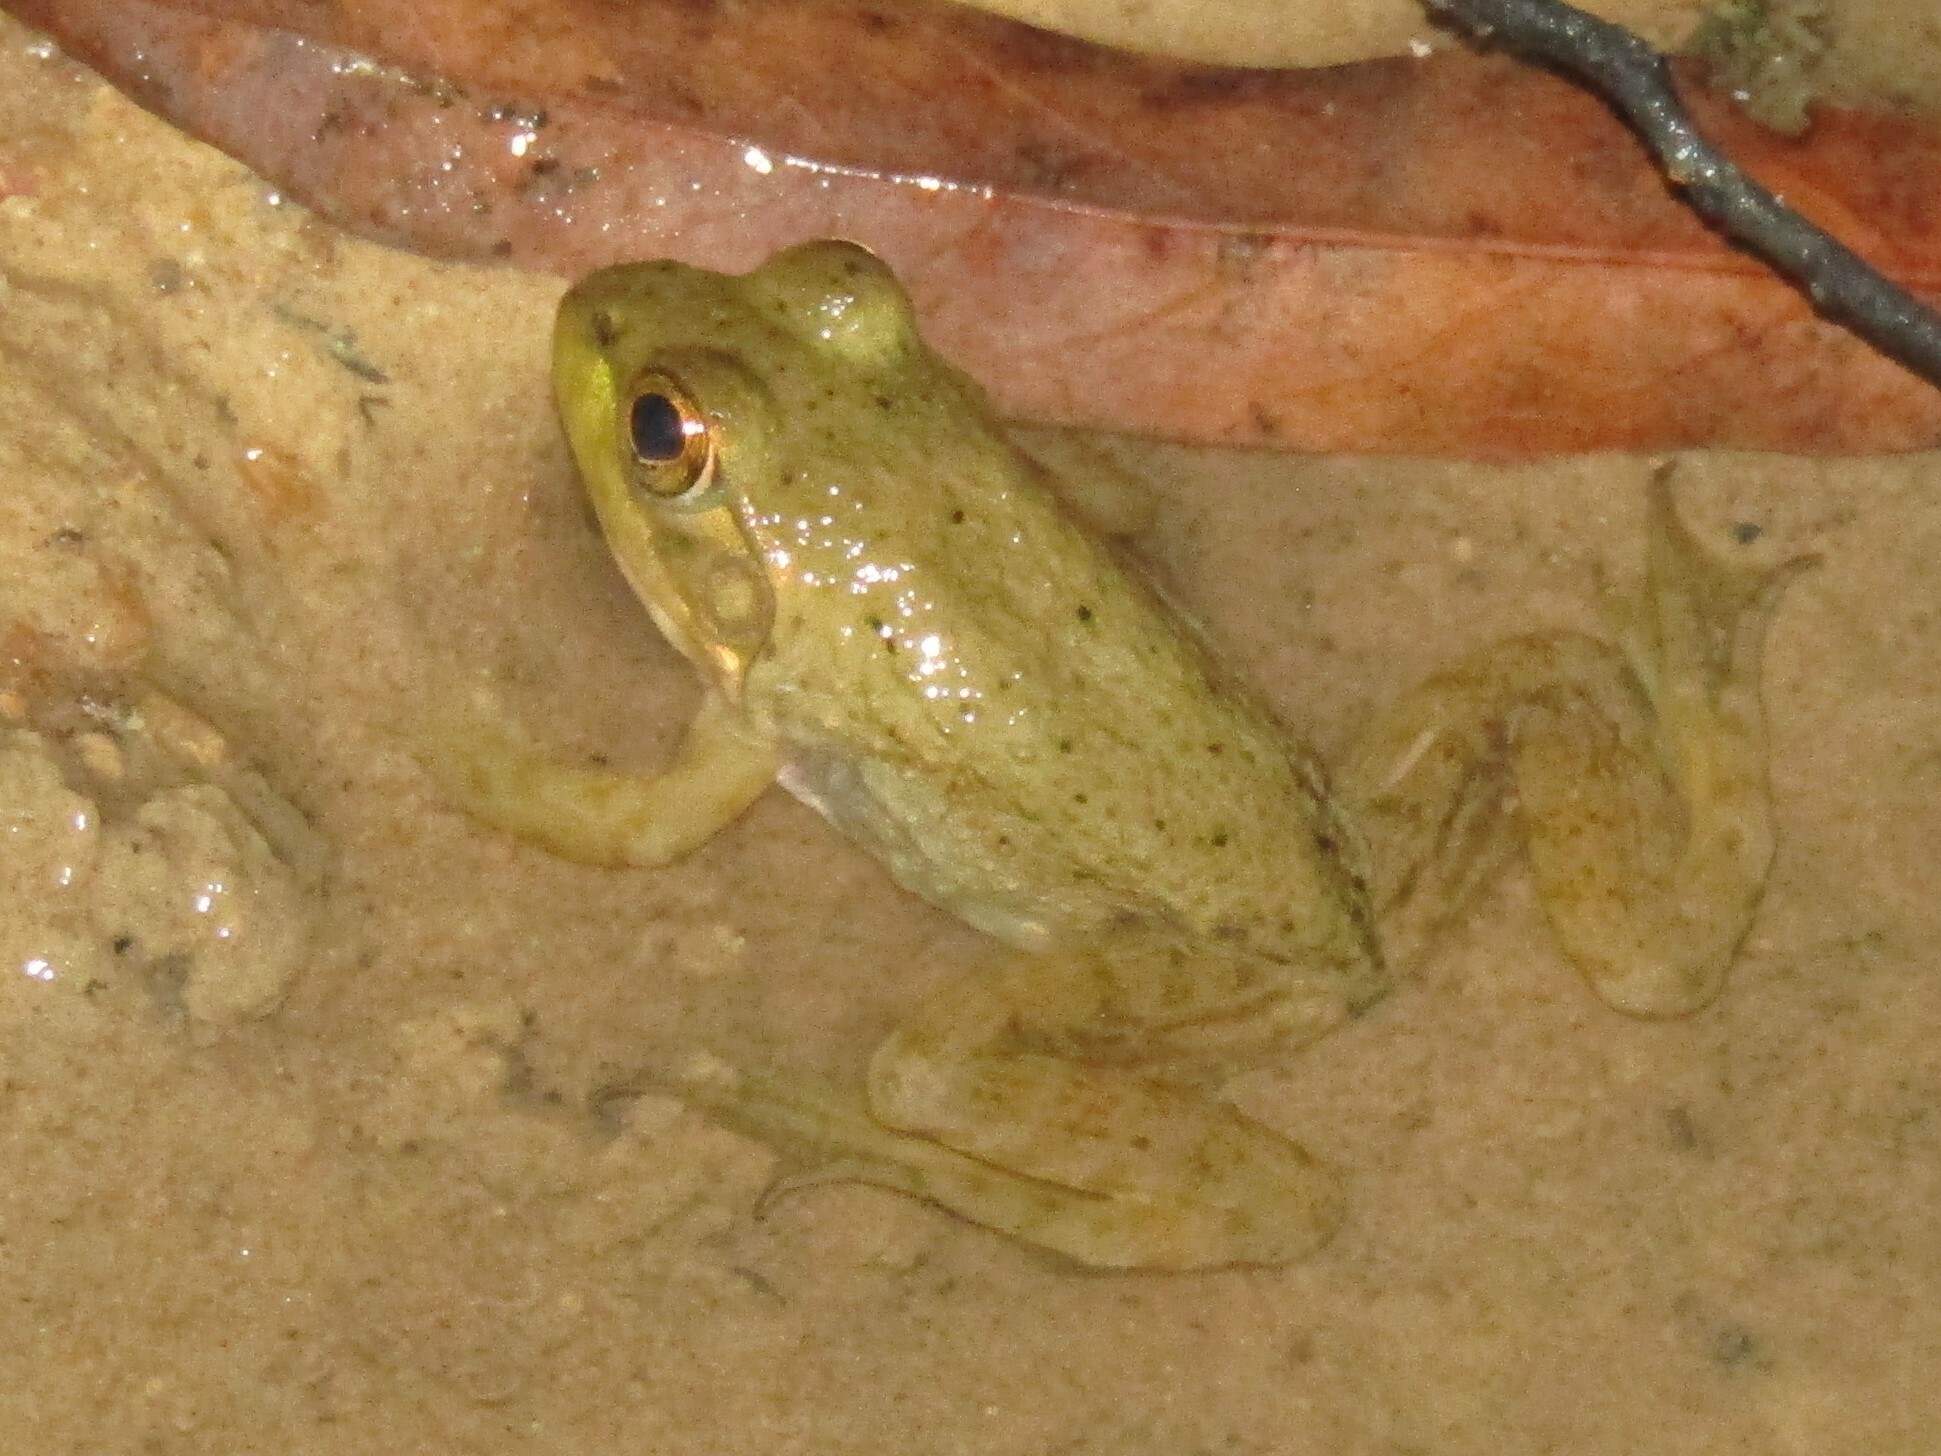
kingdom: Animalia
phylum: Chordata
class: Amphibia
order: Anura
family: Ranidae
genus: Lithobates
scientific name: Lithobates catesbeianus
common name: American bullfrog
